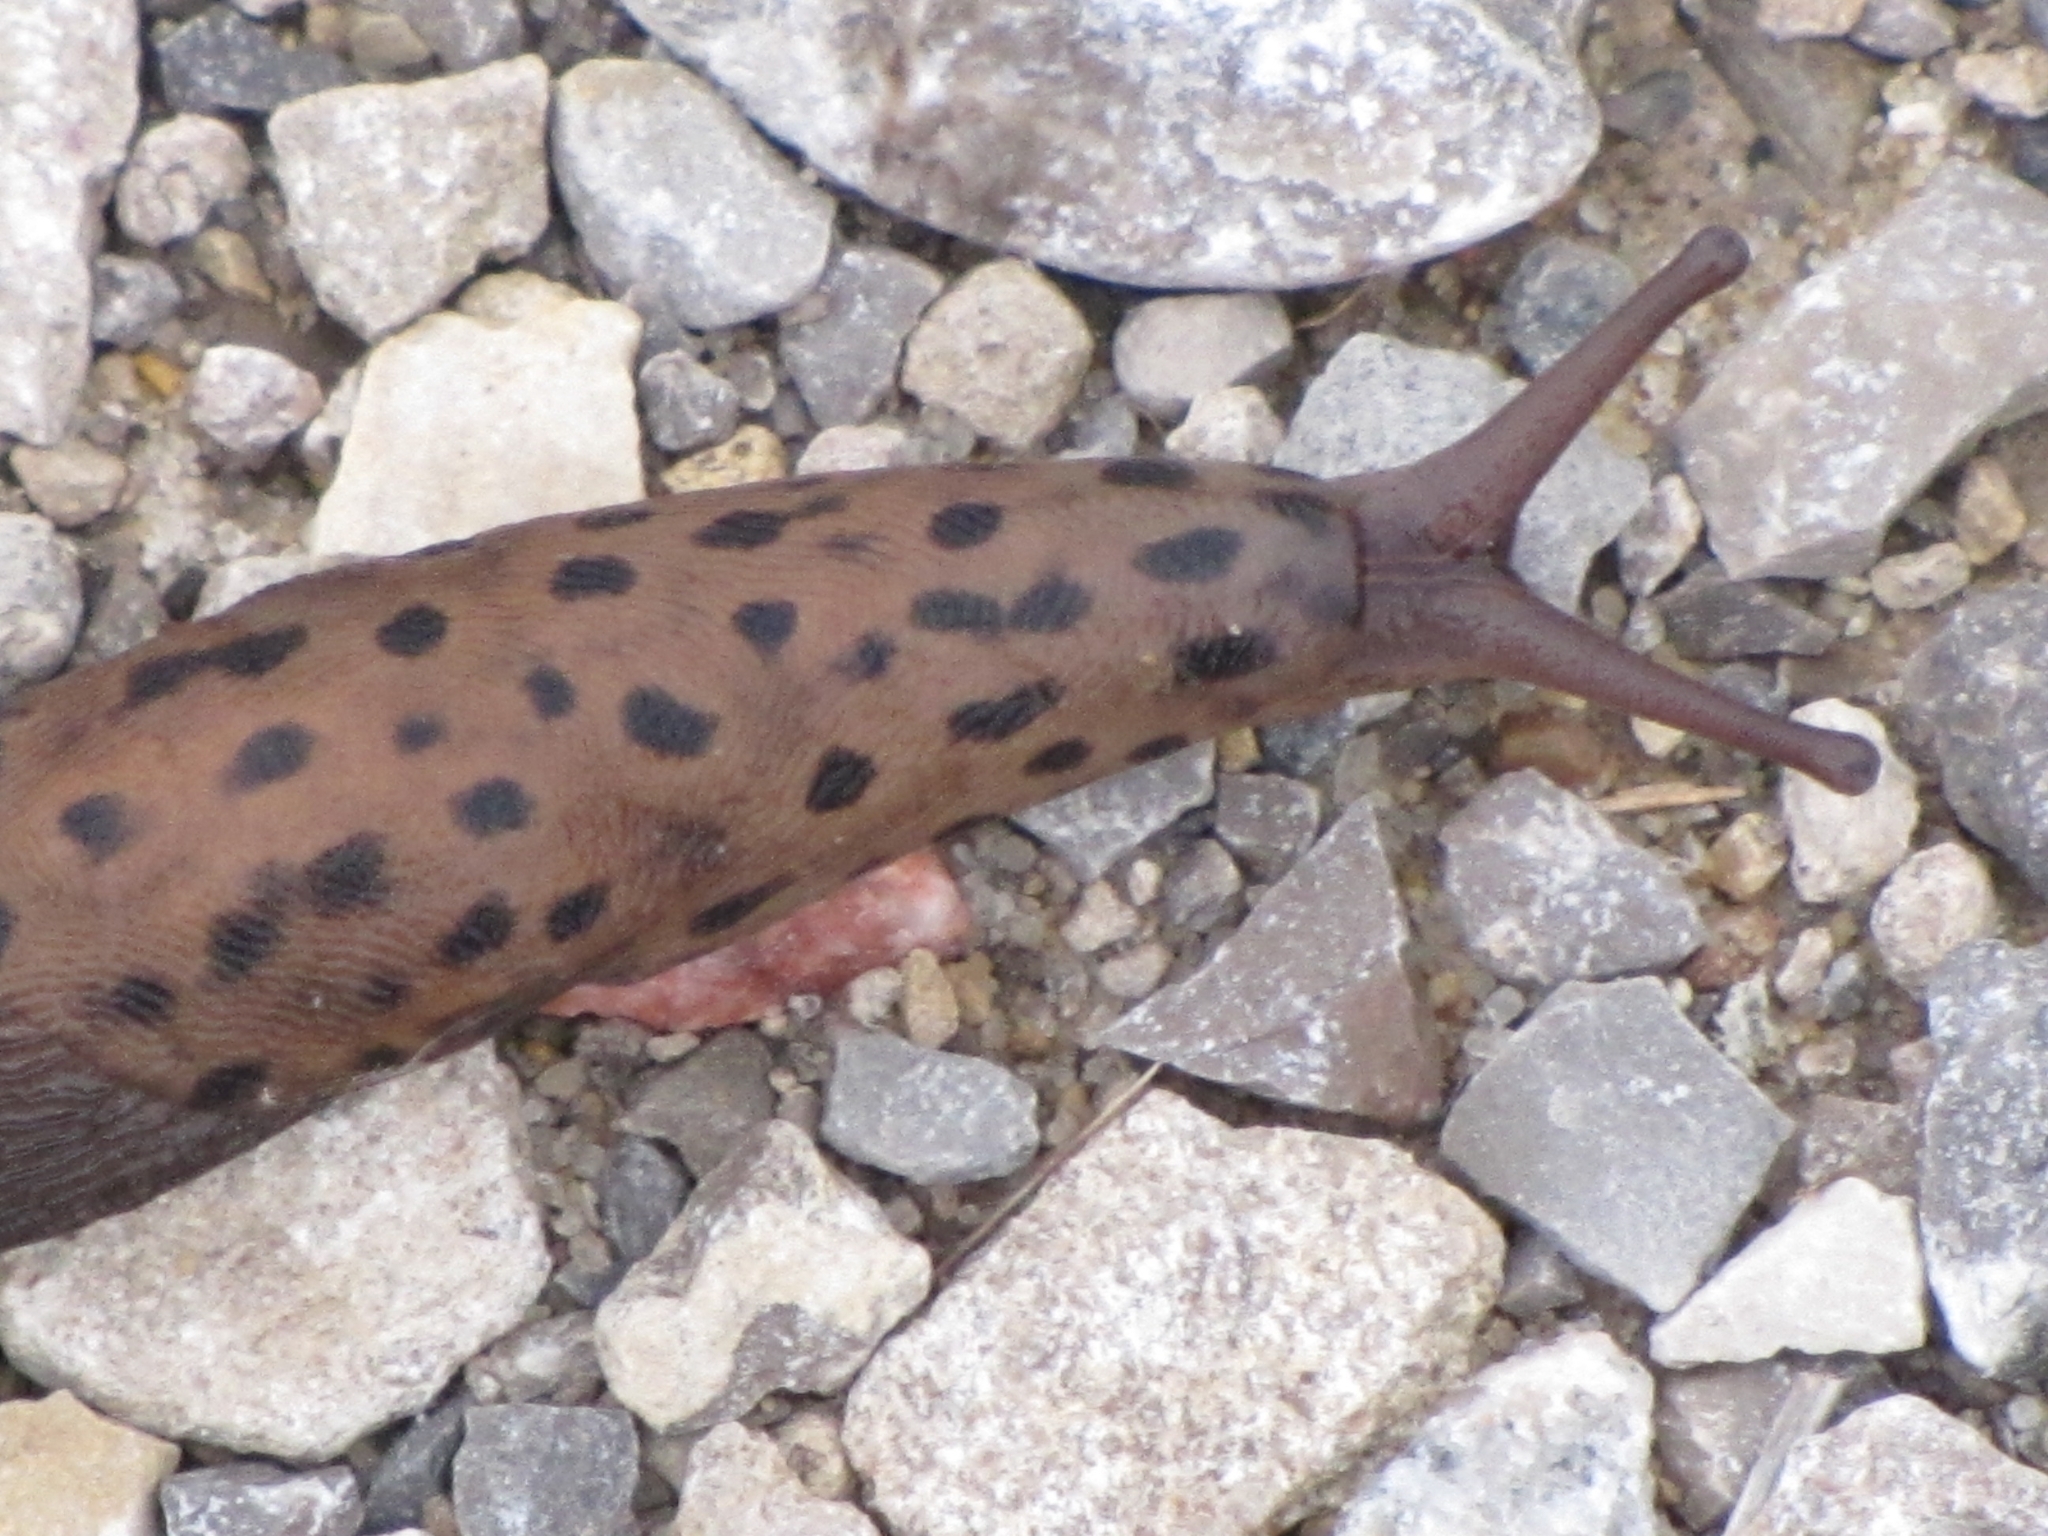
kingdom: Animalia
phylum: Mollusca
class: Gastropoda
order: Stylommatophora
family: Limacidae
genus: Limax
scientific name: Limax maximus
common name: Great grey slug
